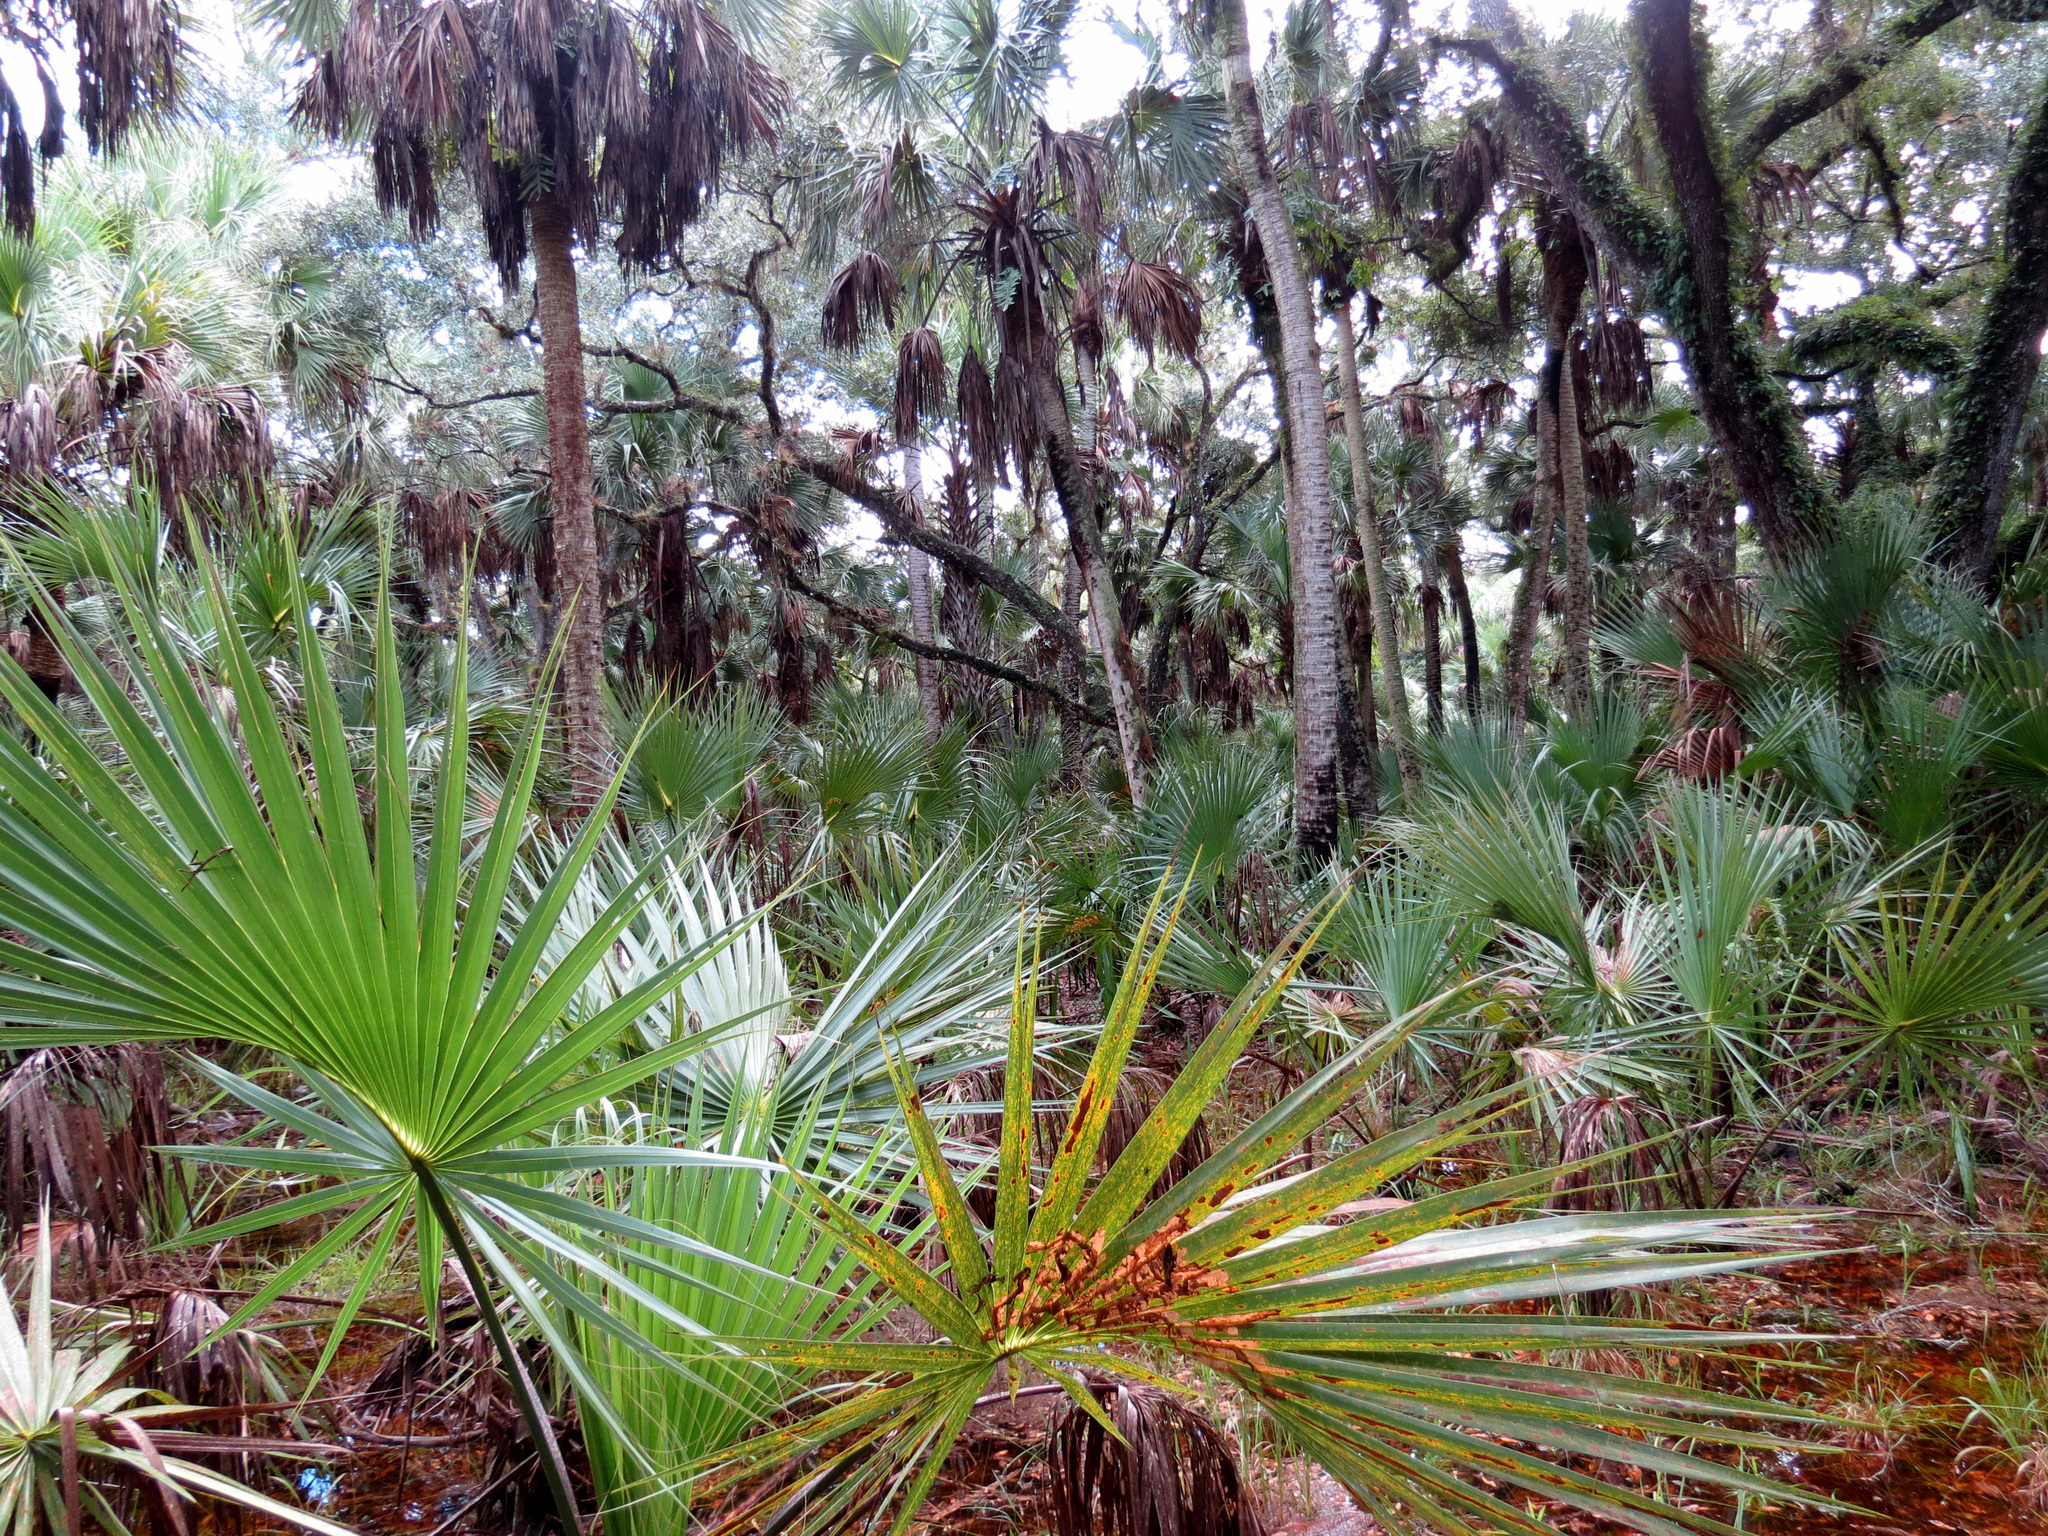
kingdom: Plantae
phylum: Tracheophyta
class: Liliopsida
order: Arecales
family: Arecaceae
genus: Sabal
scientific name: Sabal palmetto
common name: Blue palmetto
